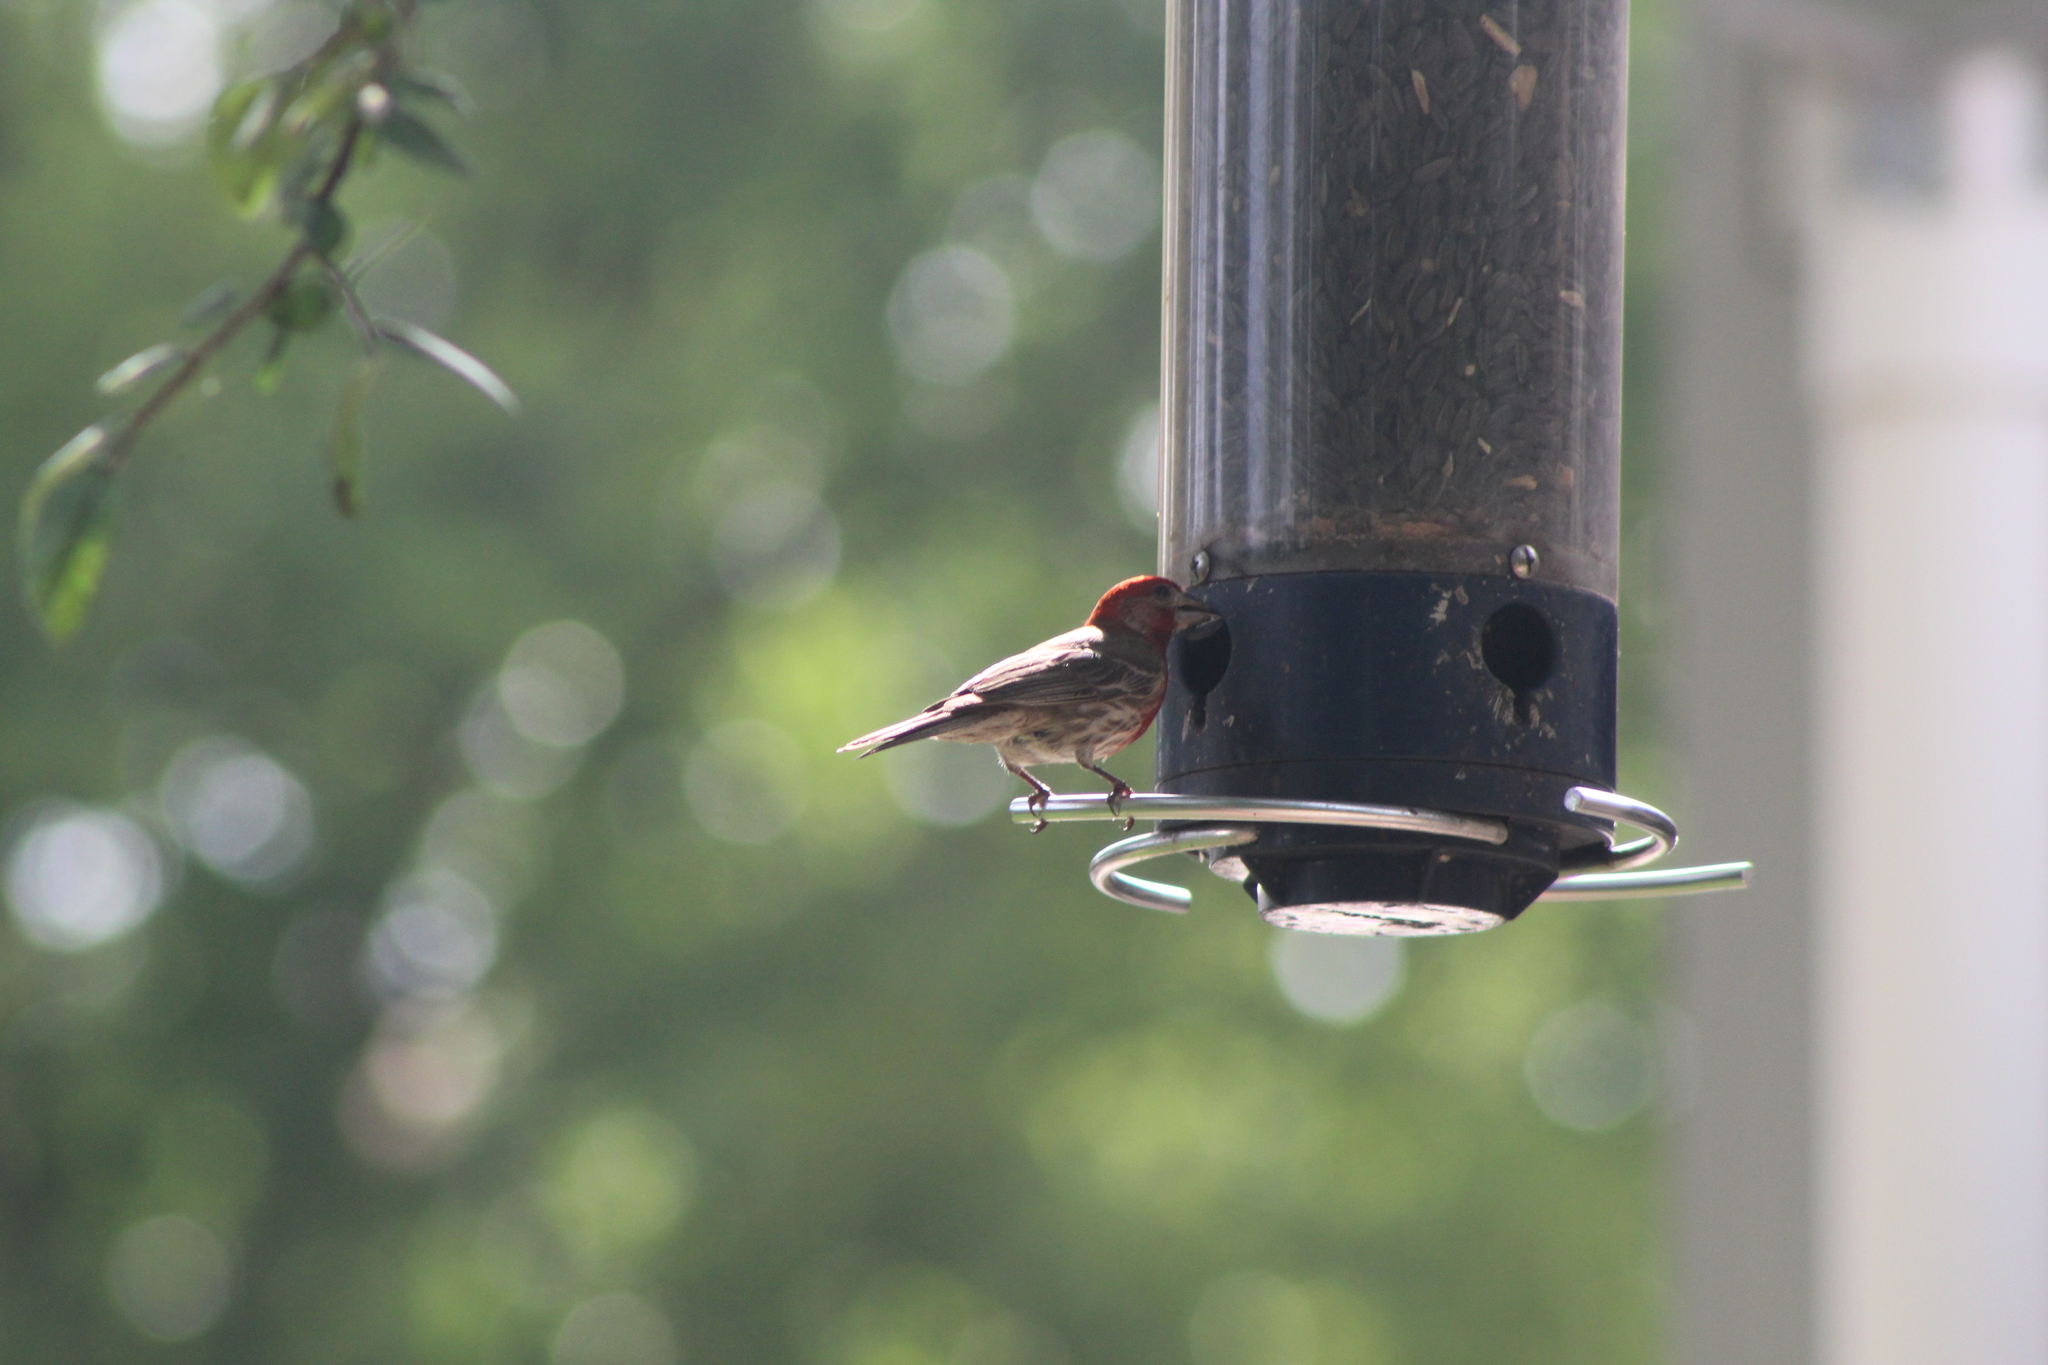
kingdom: Animalia
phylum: Chordata
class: Aves
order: Passeriformes
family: Fringillidae
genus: Haemorhous
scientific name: Haemorhous mexicanus
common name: House finch
